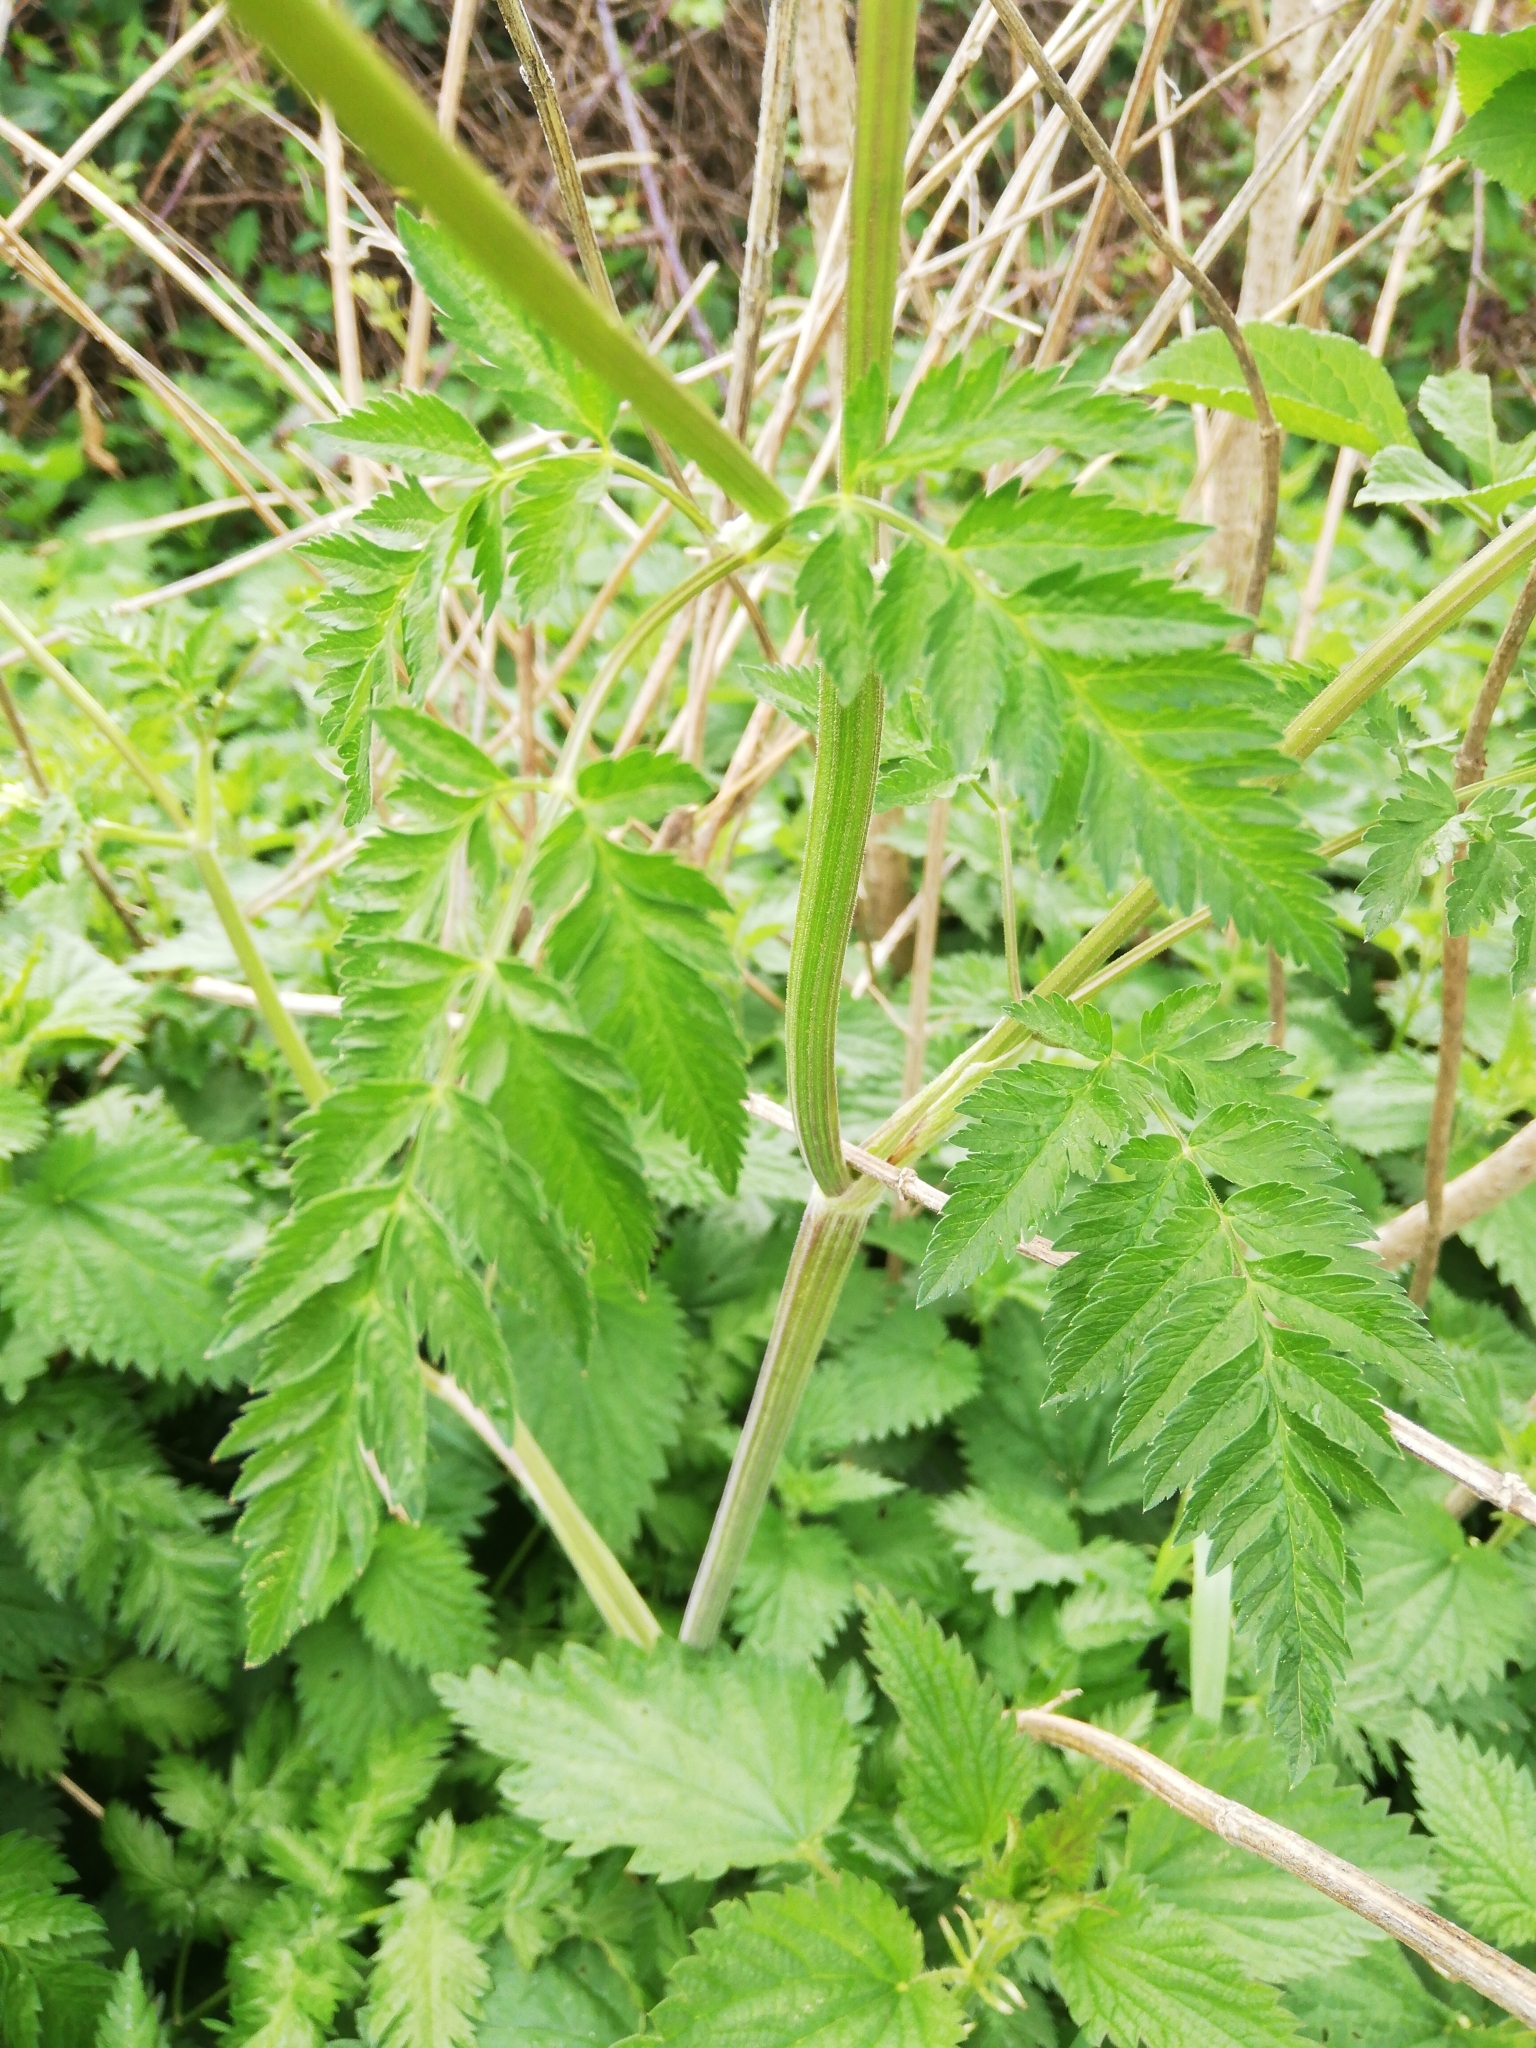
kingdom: Plantae
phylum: Tracheophyta
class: Magnoliopsida
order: Apiales
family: Apiaceae
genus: Anthriscus
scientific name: Anthriscus sylvestris
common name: Cow parsley
